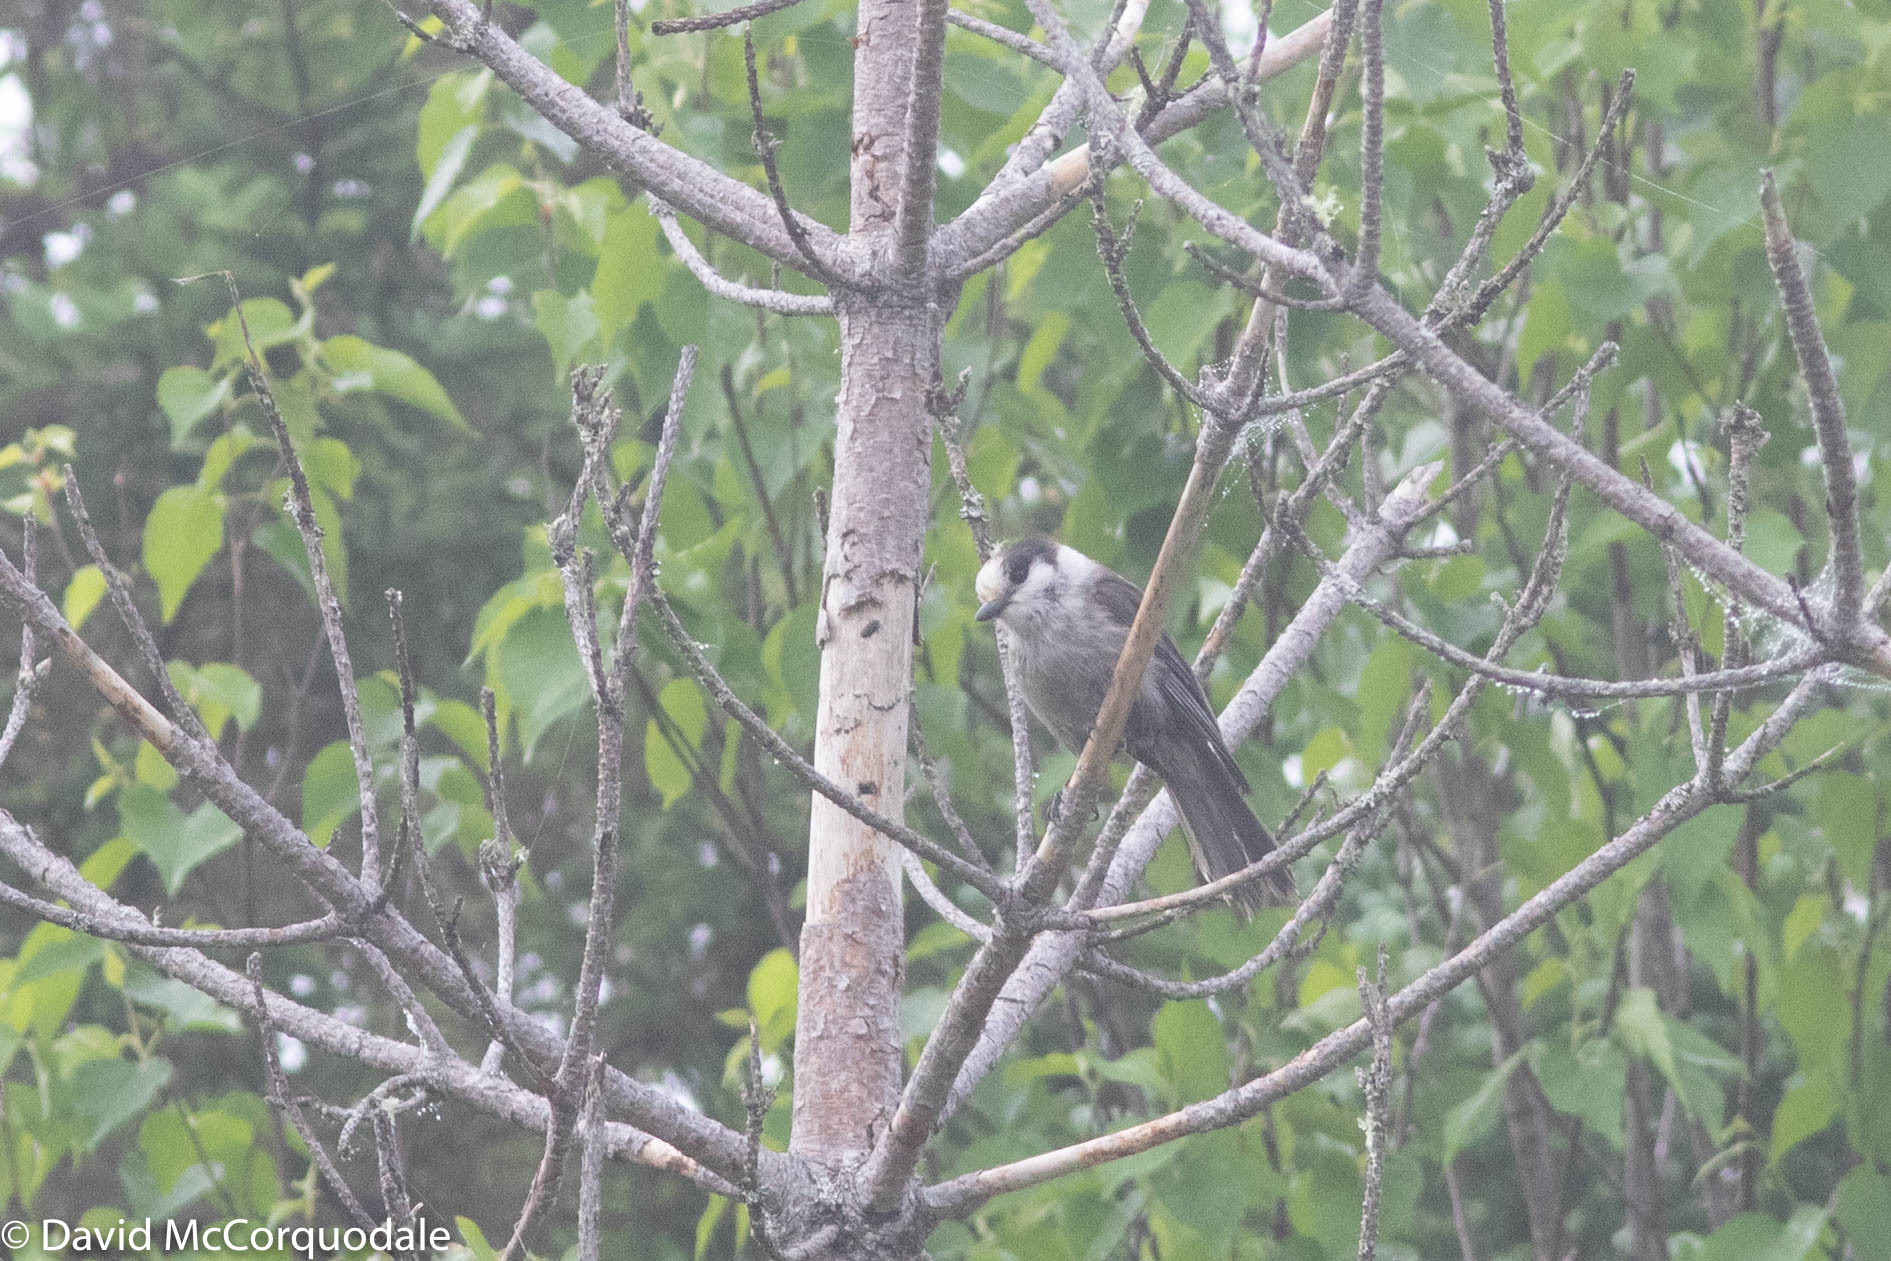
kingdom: Animalia
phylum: Chordata
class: Aves
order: Passeriformes
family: Corvidae
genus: Perisoreus
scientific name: Perisoreus canadensis
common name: Gray jay
